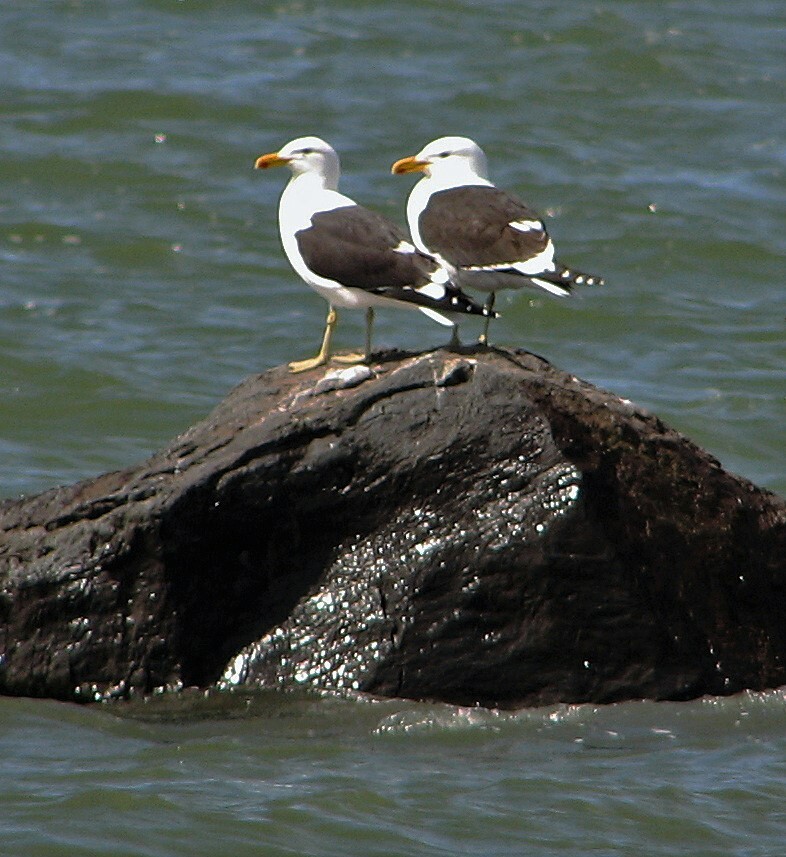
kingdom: Animalia
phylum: Chordata
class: Aves
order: Charadriiformes
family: Laridae
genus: Larus
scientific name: Larus dominicanus
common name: Kelp gull
